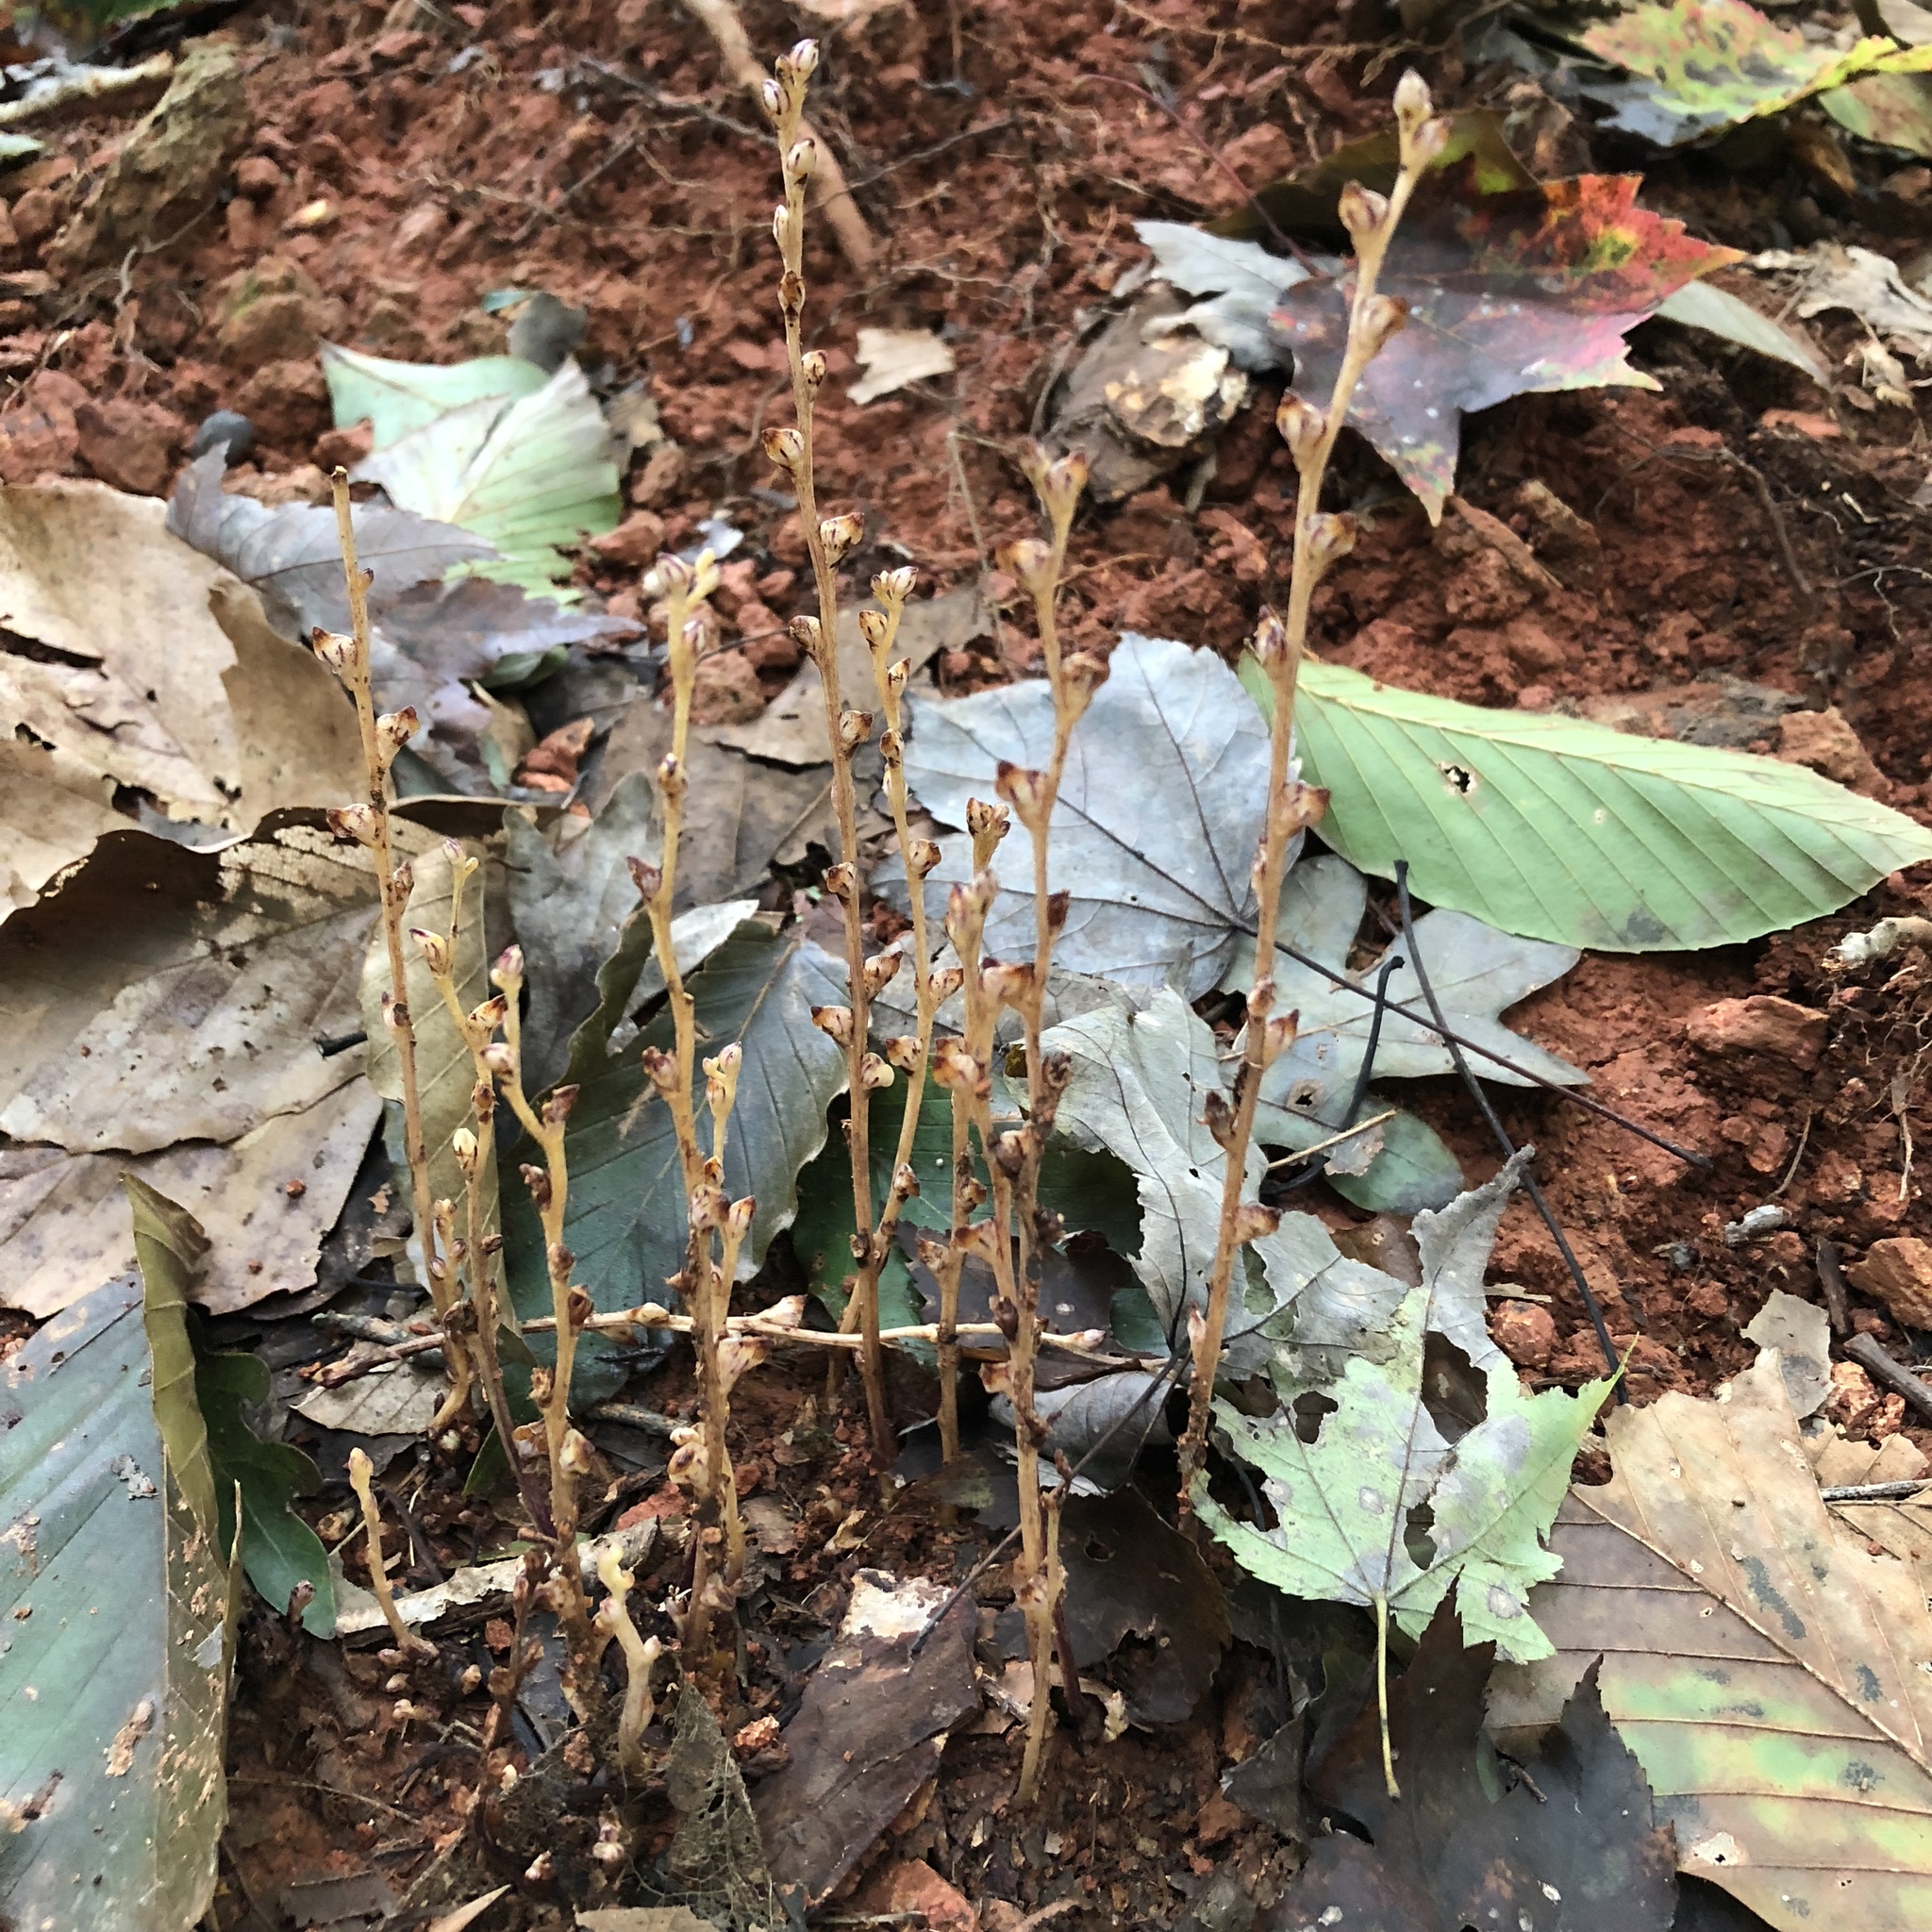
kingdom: Plantae
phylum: Tracheophyta
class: Magnoliopsida
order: Lamiales
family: Orobanchaceae
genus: Epifagus
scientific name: Epifagus virginiana
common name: Beechdrops
